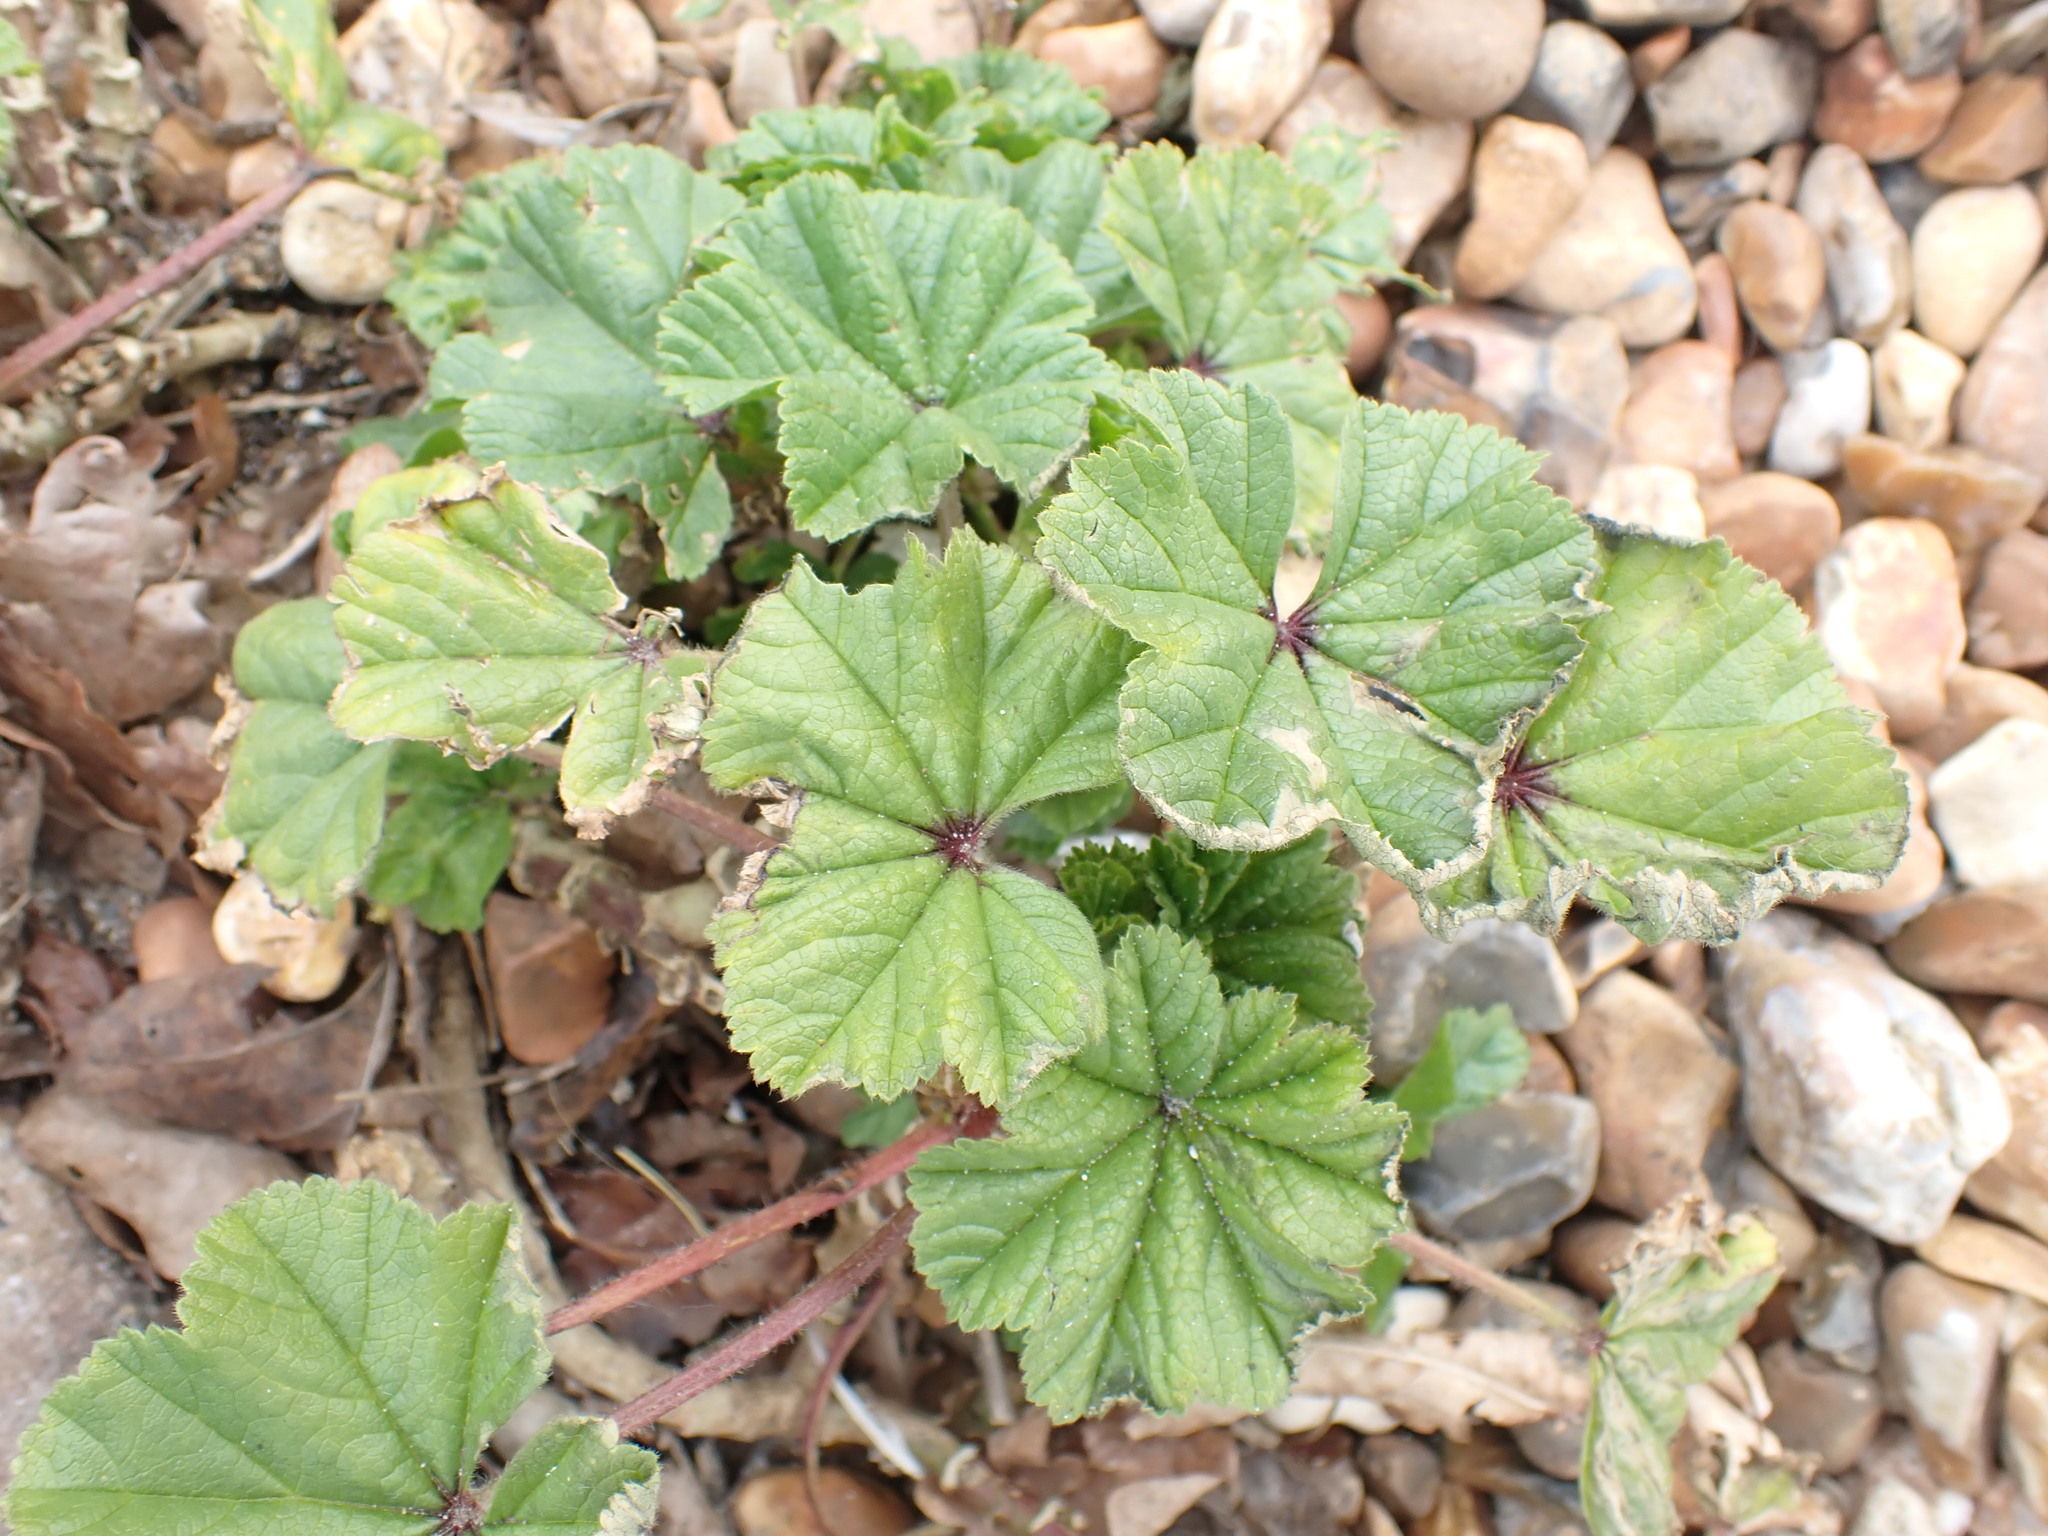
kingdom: Plantae
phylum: Tracheophyta
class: Magnoliopsida
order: Malvales
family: Malvaceae
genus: Malva
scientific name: Malva sylvestris
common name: Common mallow
